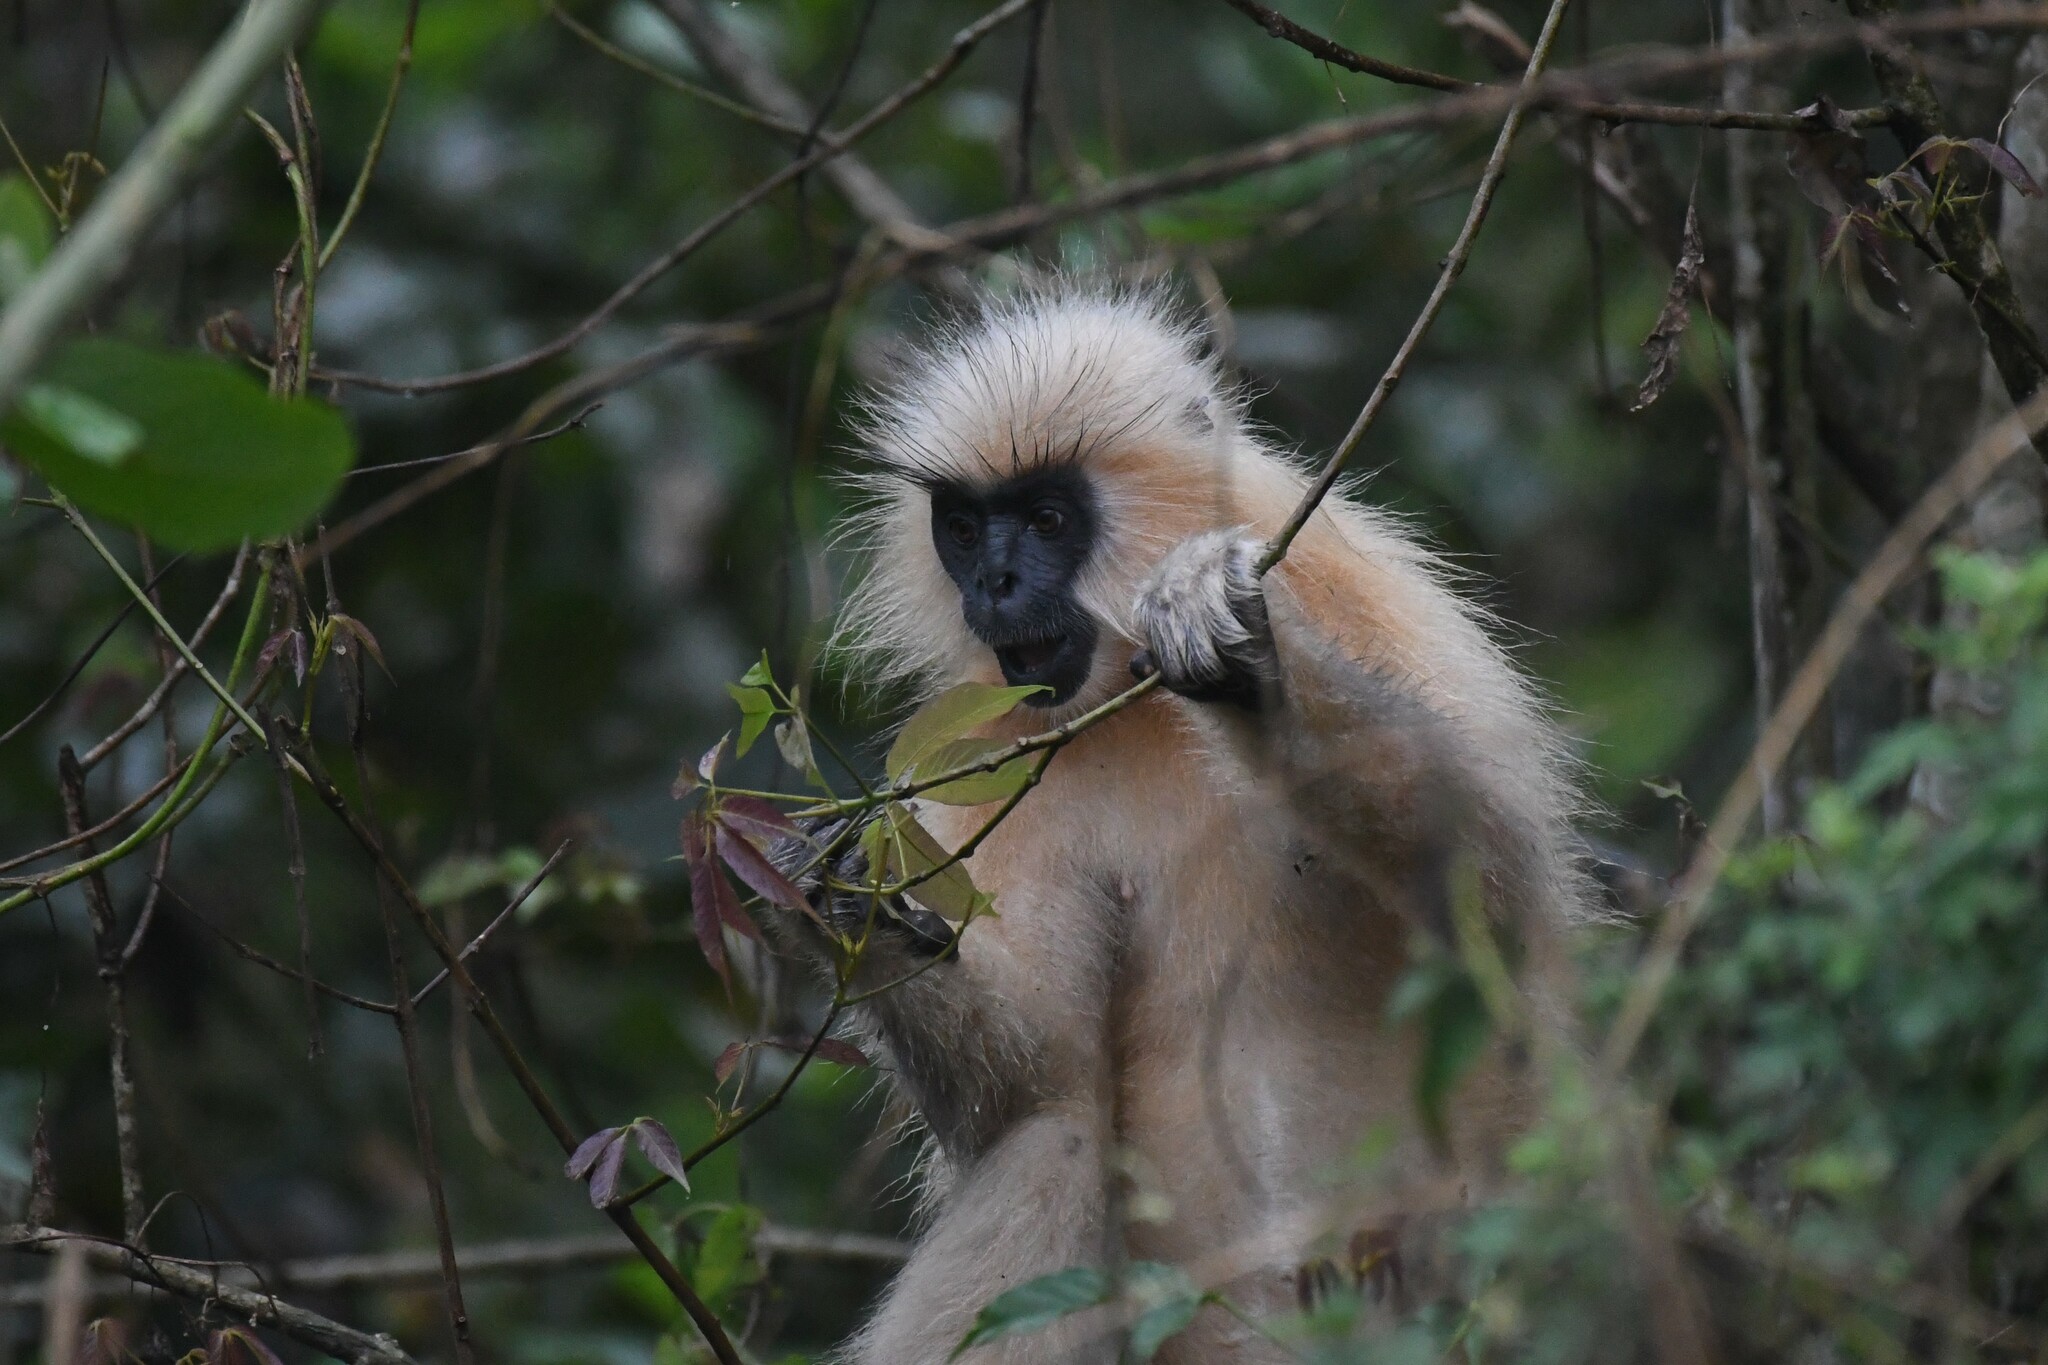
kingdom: Animalia
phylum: Chordata
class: Mammalia
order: Primates
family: Cercopithecidae
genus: Trachypithecus
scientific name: Trachypithecus geei
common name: Gee's golden langur
